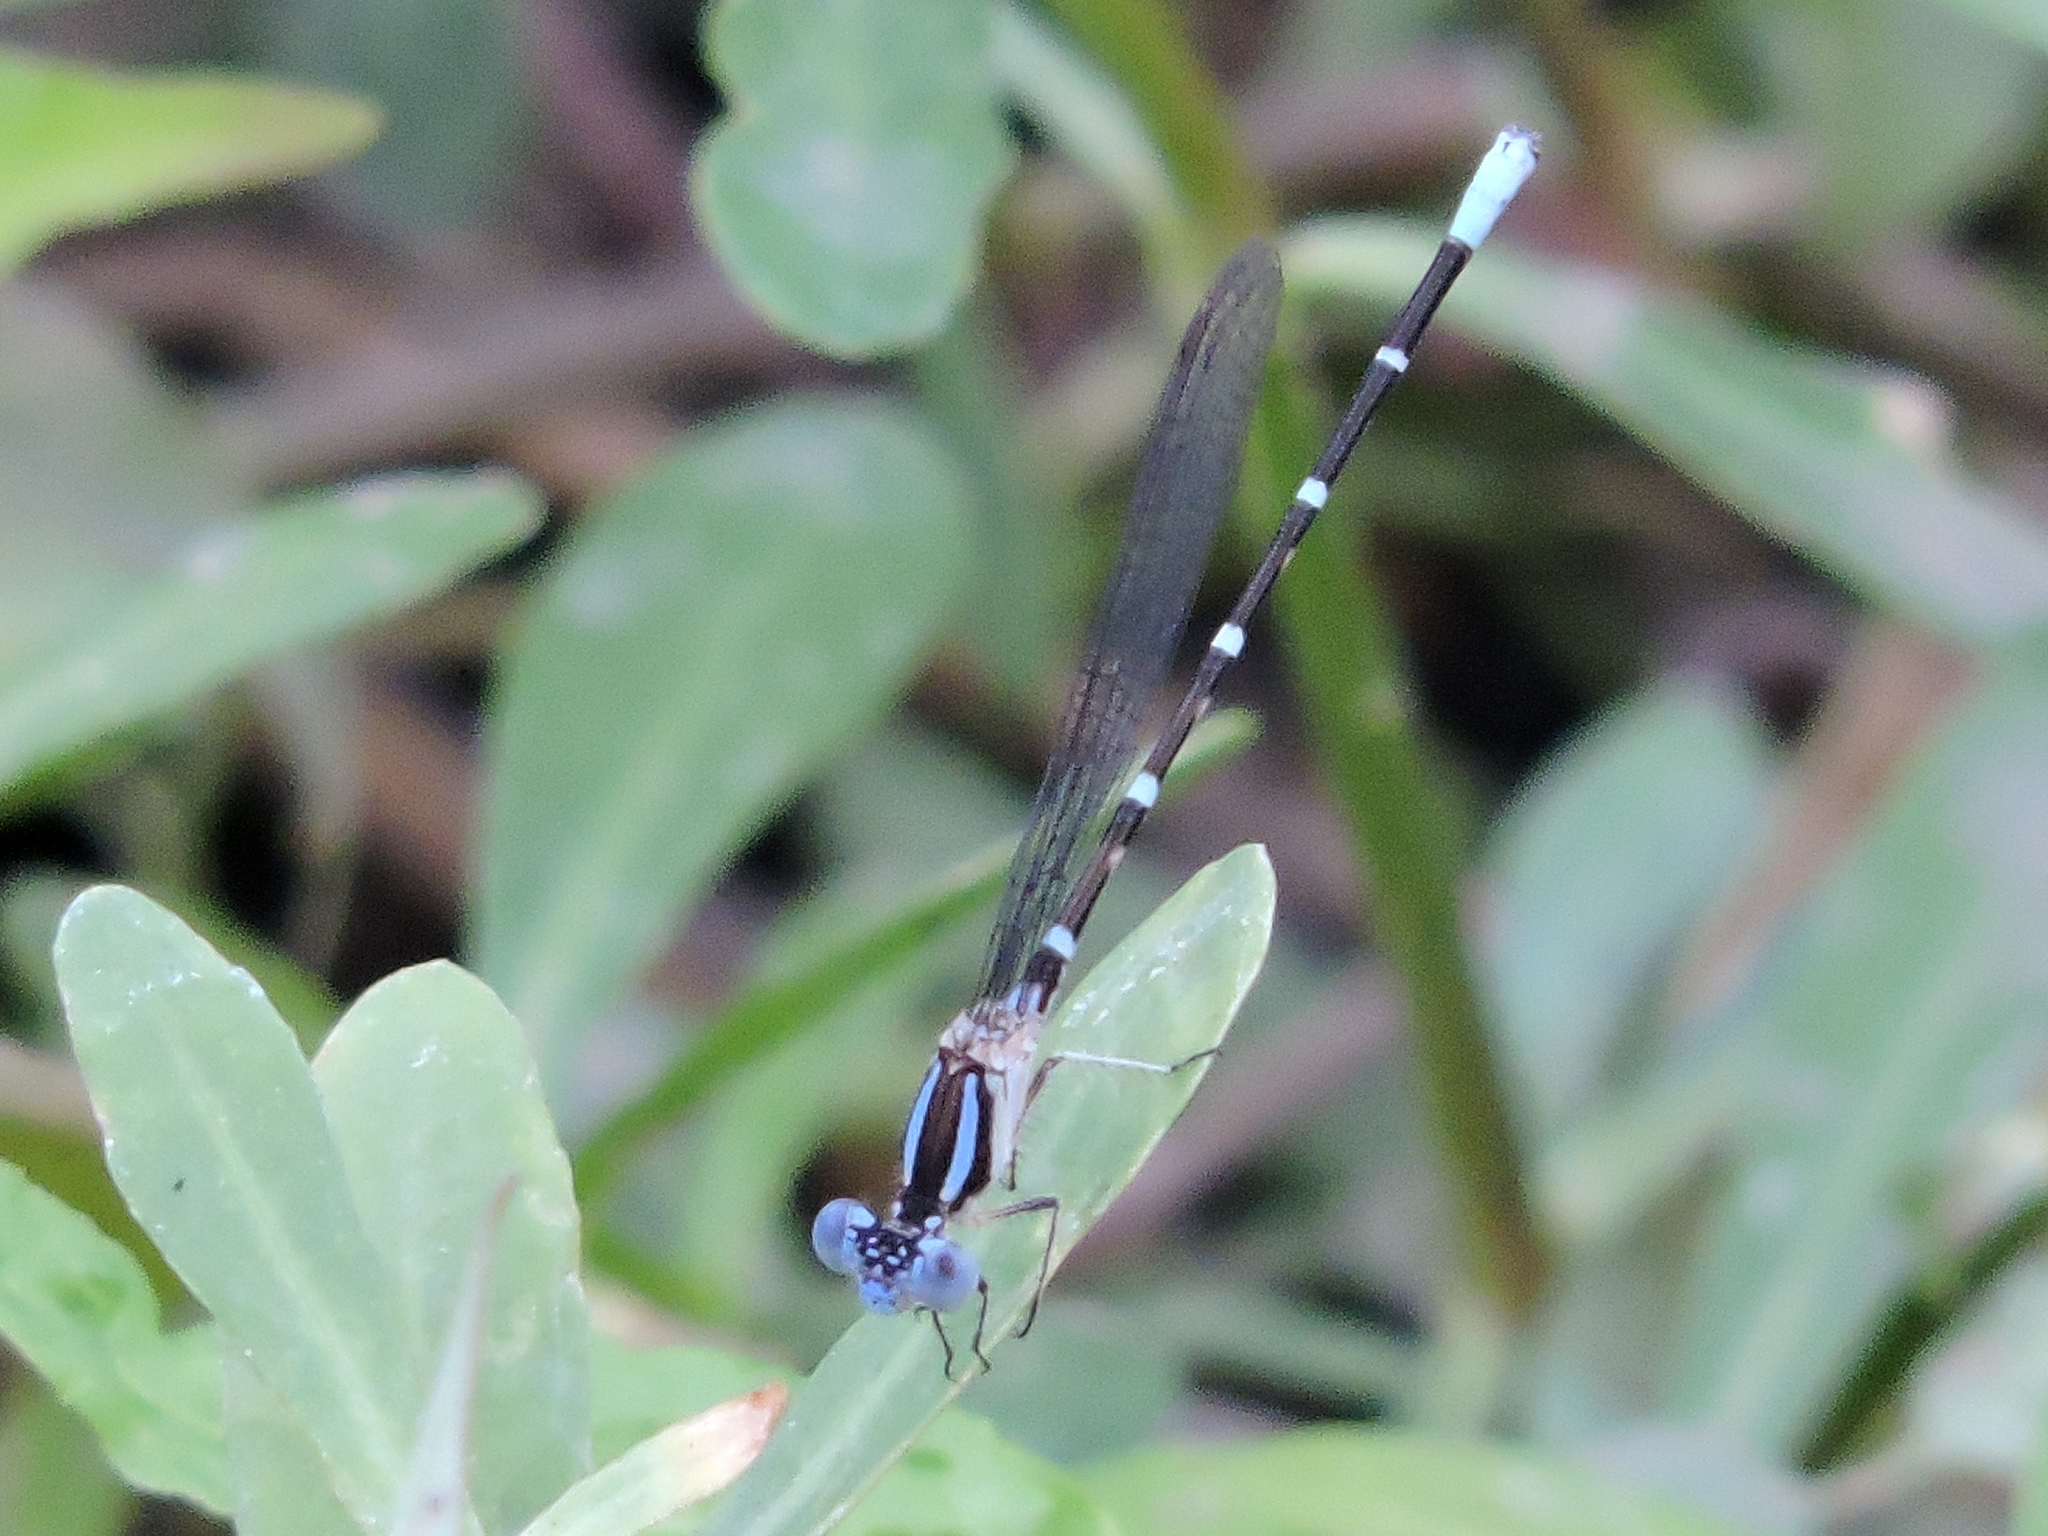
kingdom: Animalia
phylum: Arthropoda
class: Insecta
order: Odonata
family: Coenagrionidae
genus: Argia
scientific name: Argia sedula
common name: Blue-ringed dancer
